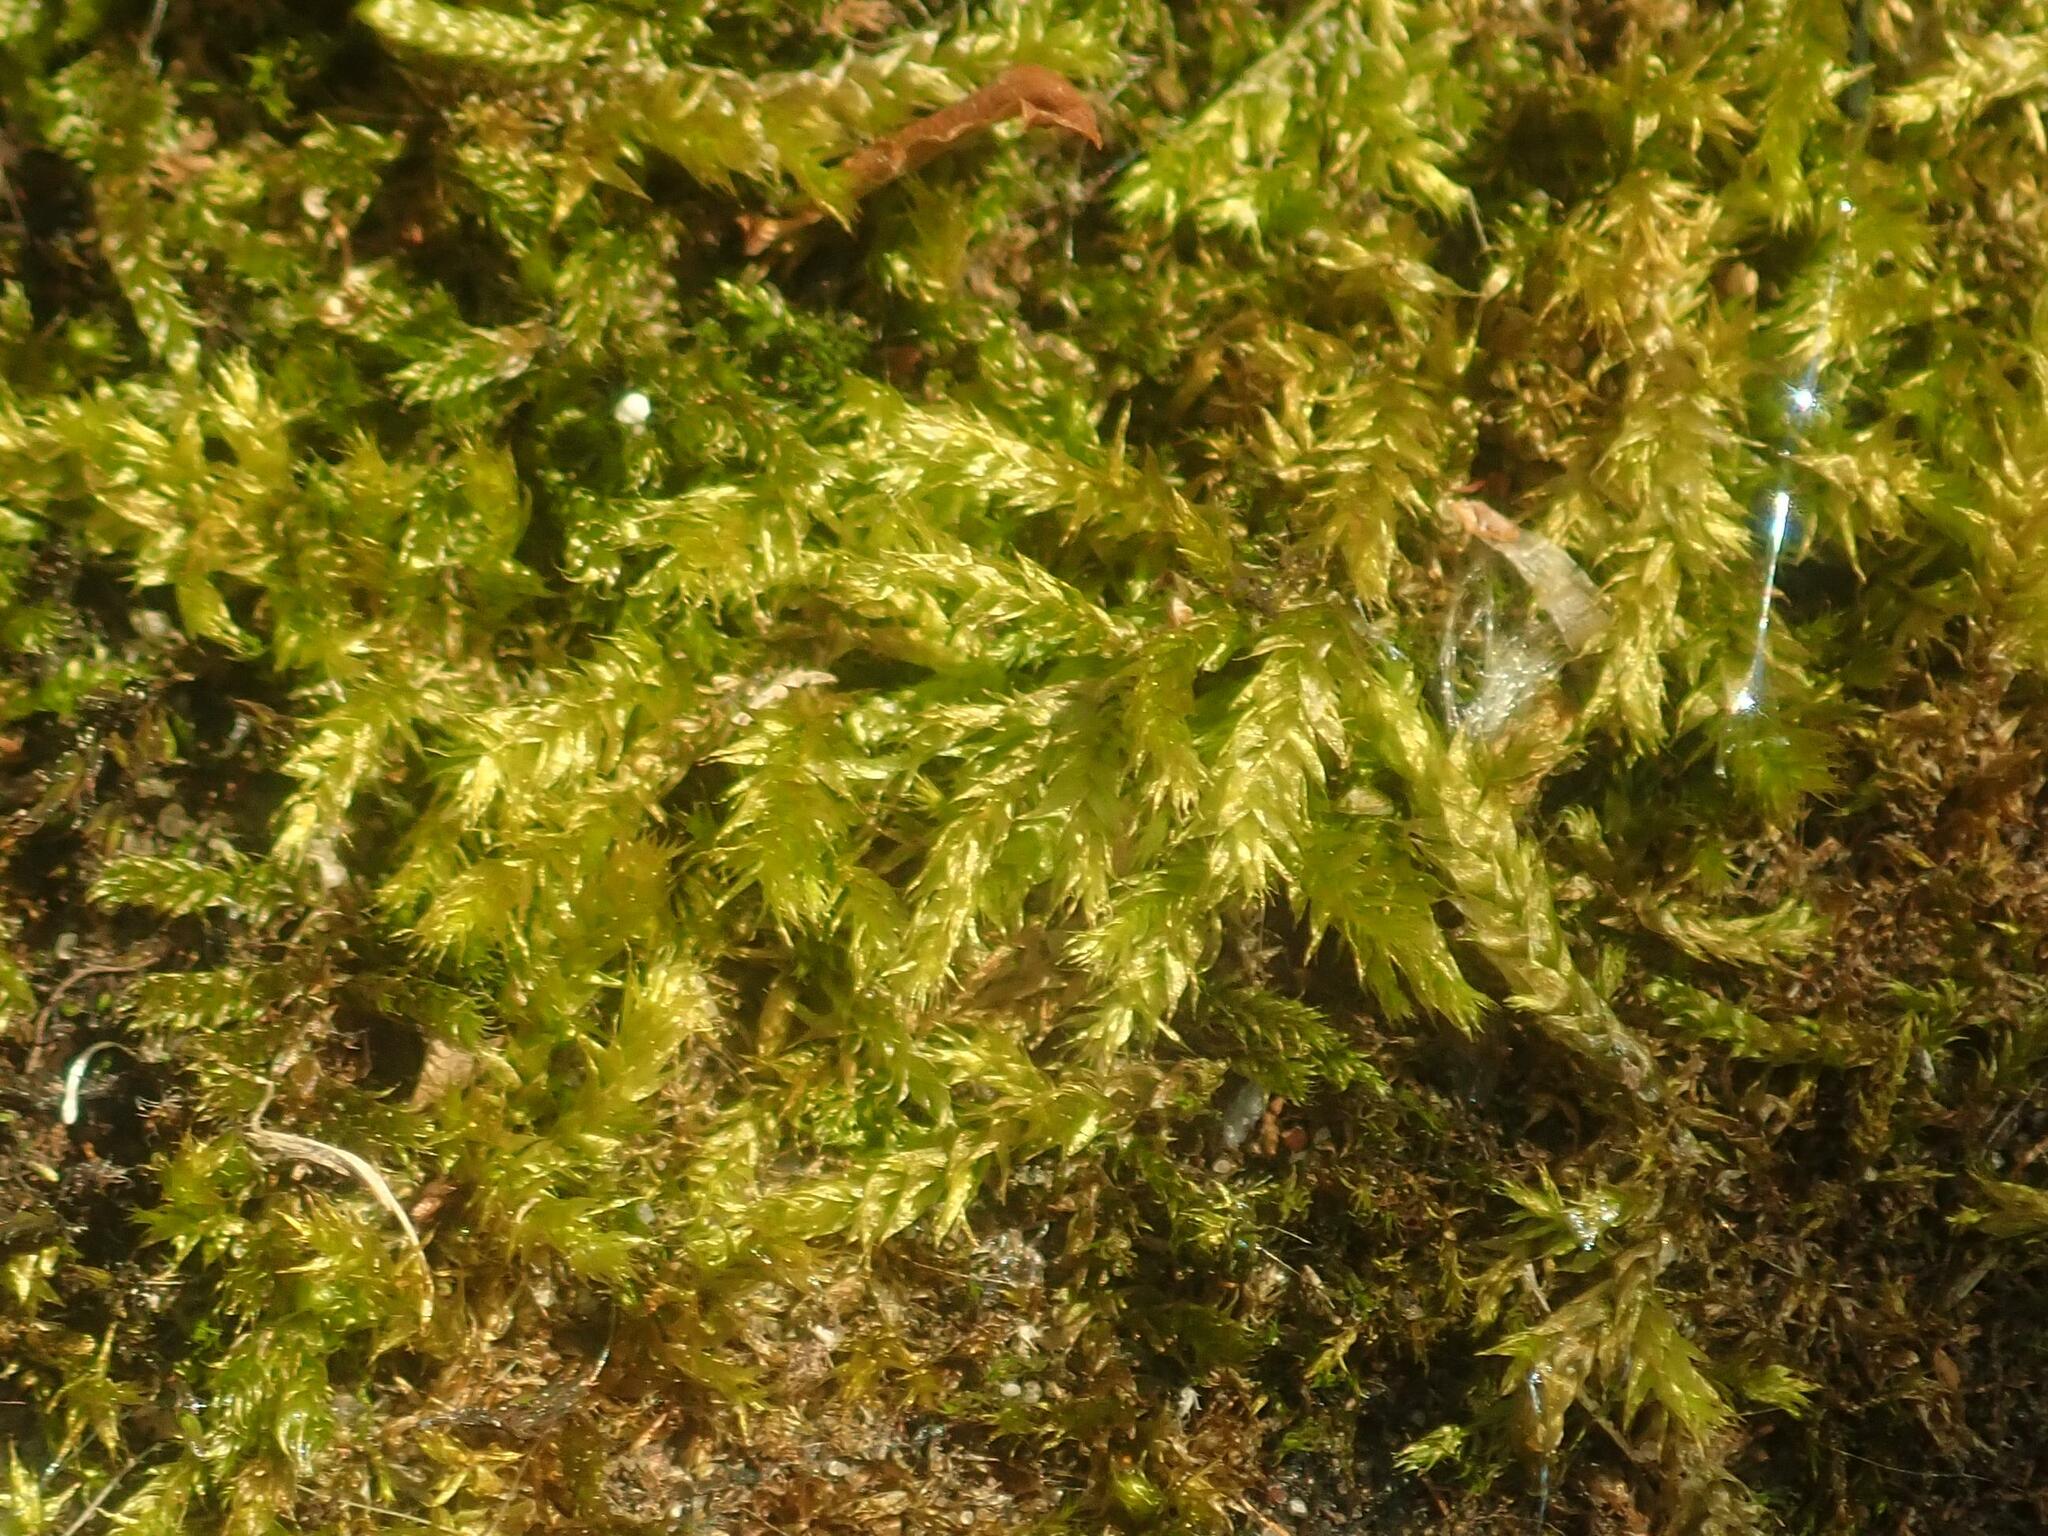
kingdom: Plantae
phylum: Bryophyta
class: Bryopsida
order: Hypnales
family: Brachytheciaceae
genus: Brachythecium
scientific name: Brachythecium rutabulum
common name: Rough-stalked feather-moss
